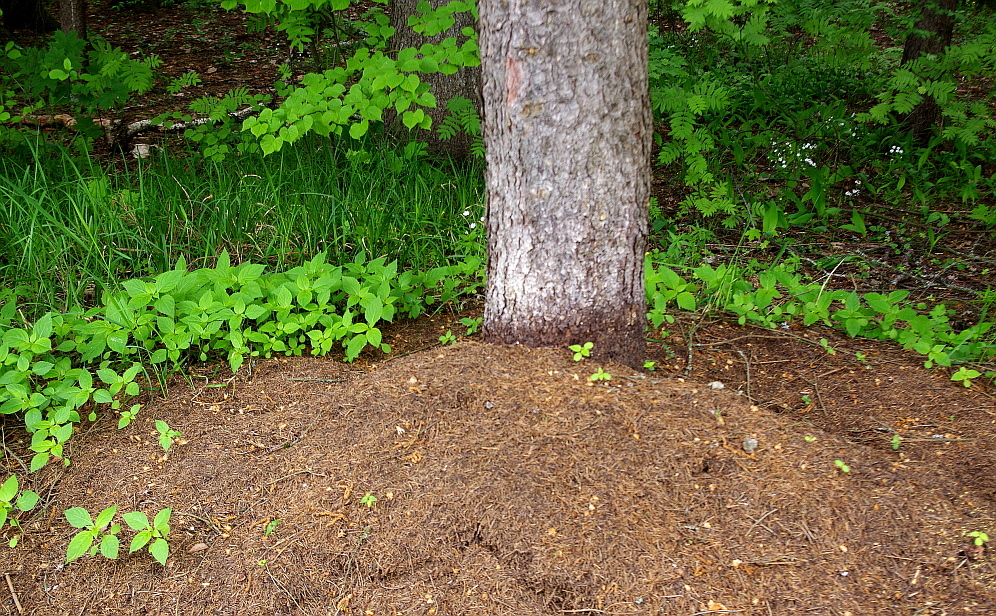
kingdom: Plantae
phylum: Tracheophyta
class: Magnoliopsida
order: Ericales
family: Balsaminaceae
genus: Impatiens
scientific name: Impatiens parviflora
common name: Small balsam
